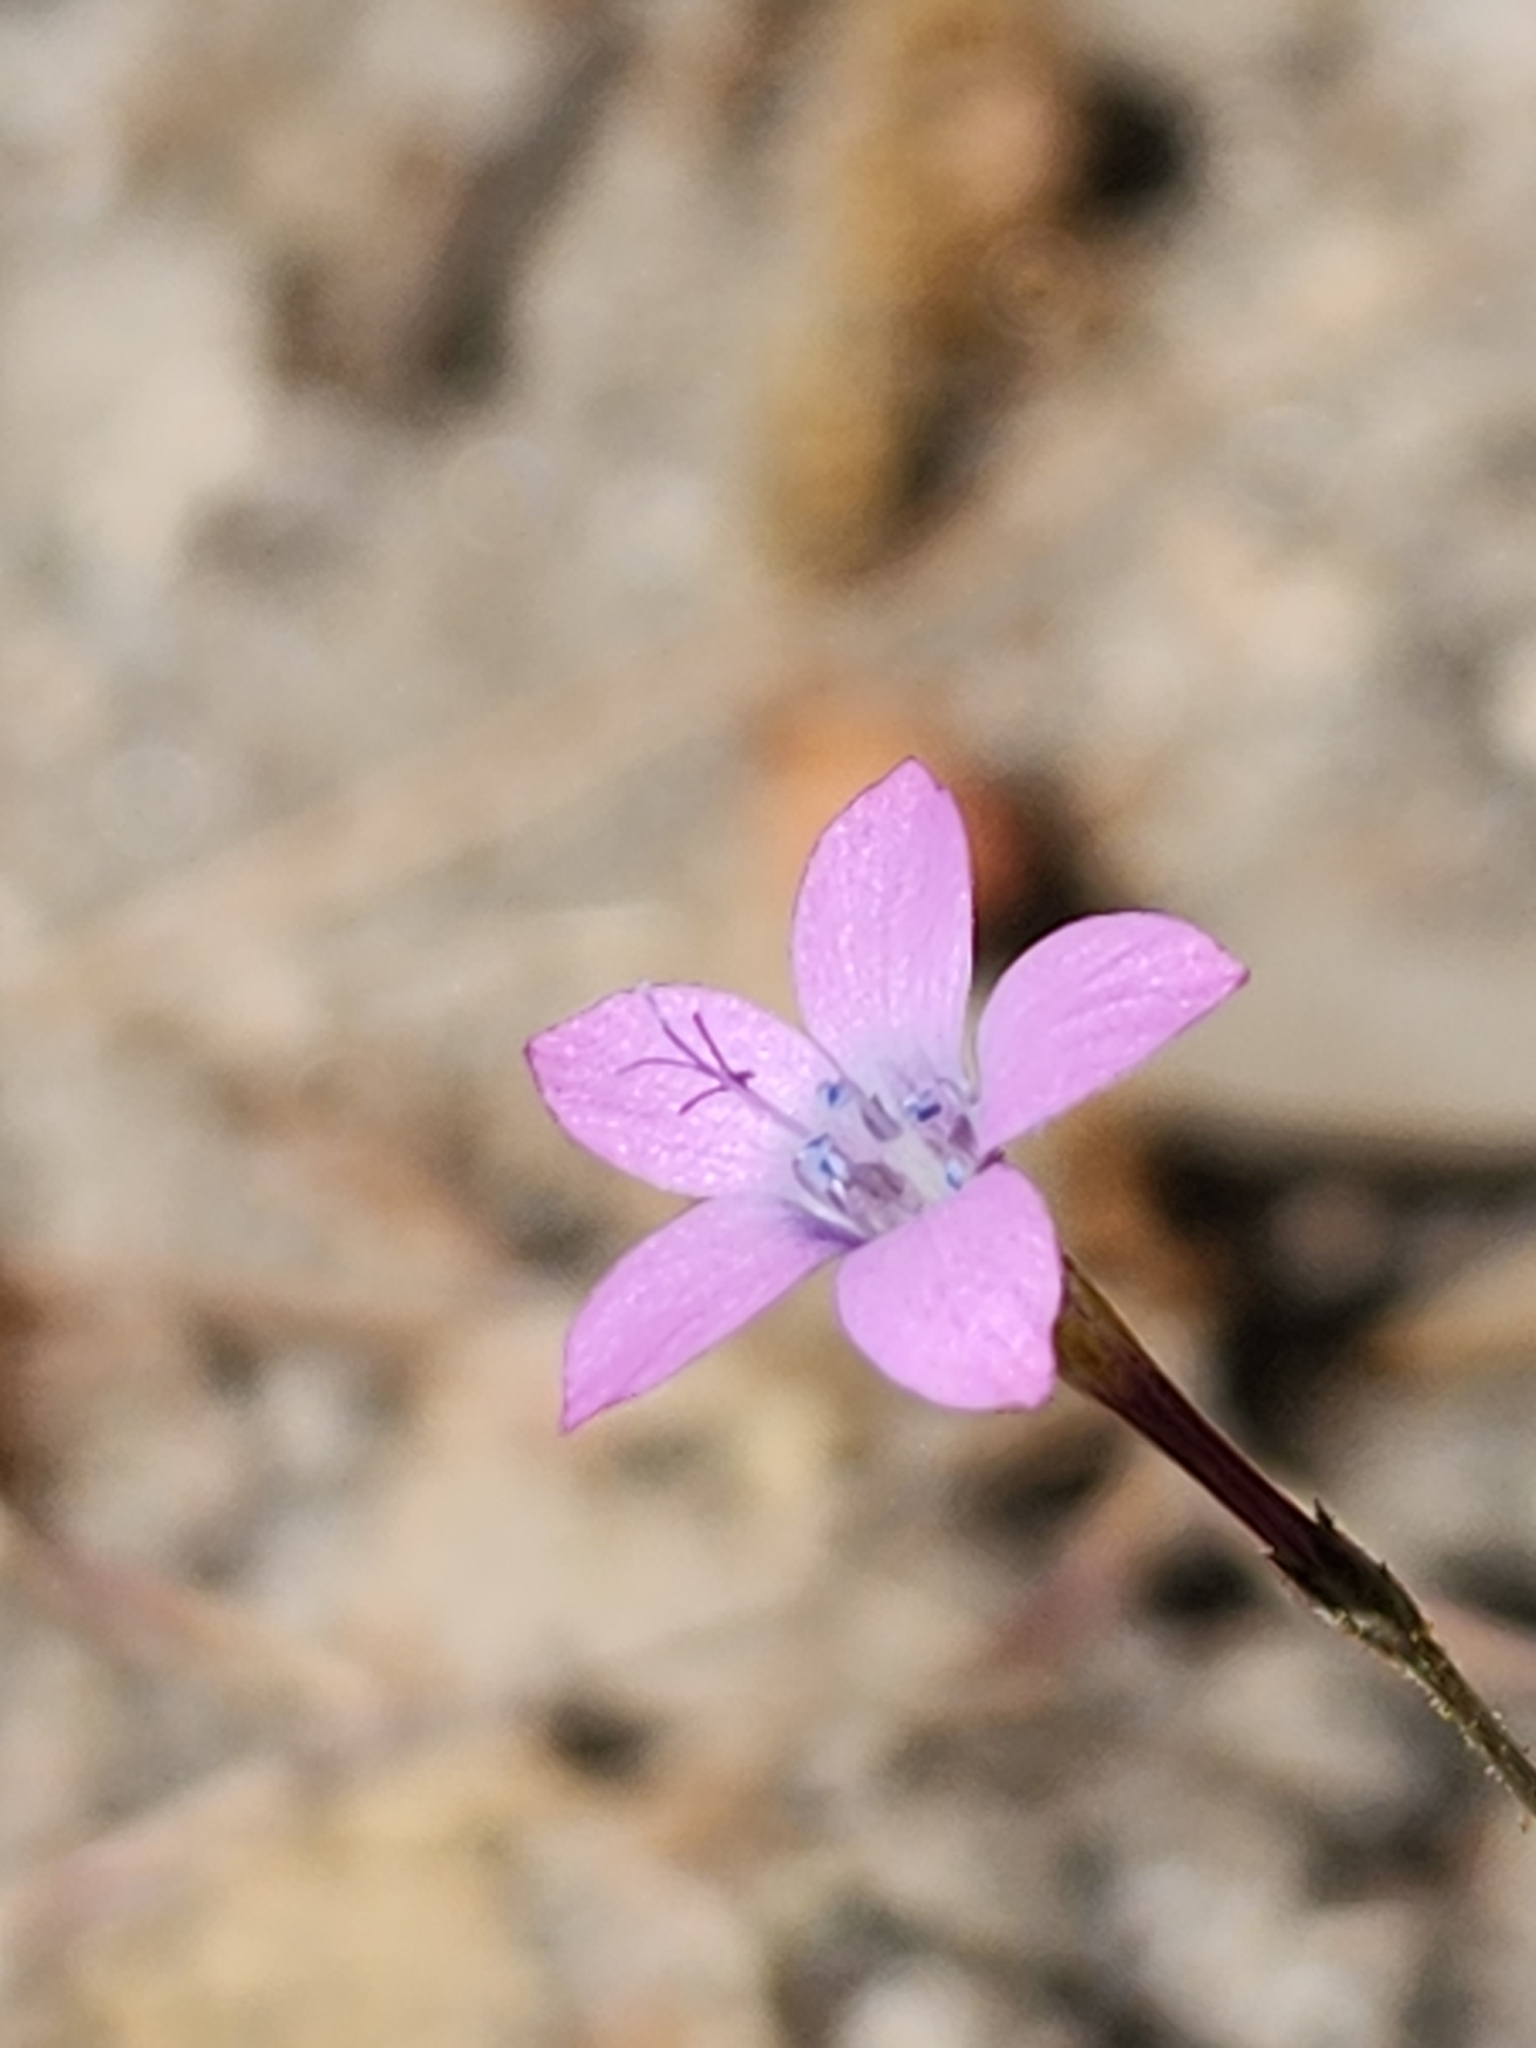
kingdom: Plantae
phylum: Tracheophyta
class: Magnoliopsida
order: Ericales
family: Polemoniaceae
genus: Saltugilia
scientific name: Saltugilia splendens
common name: Grinnell's gilia
